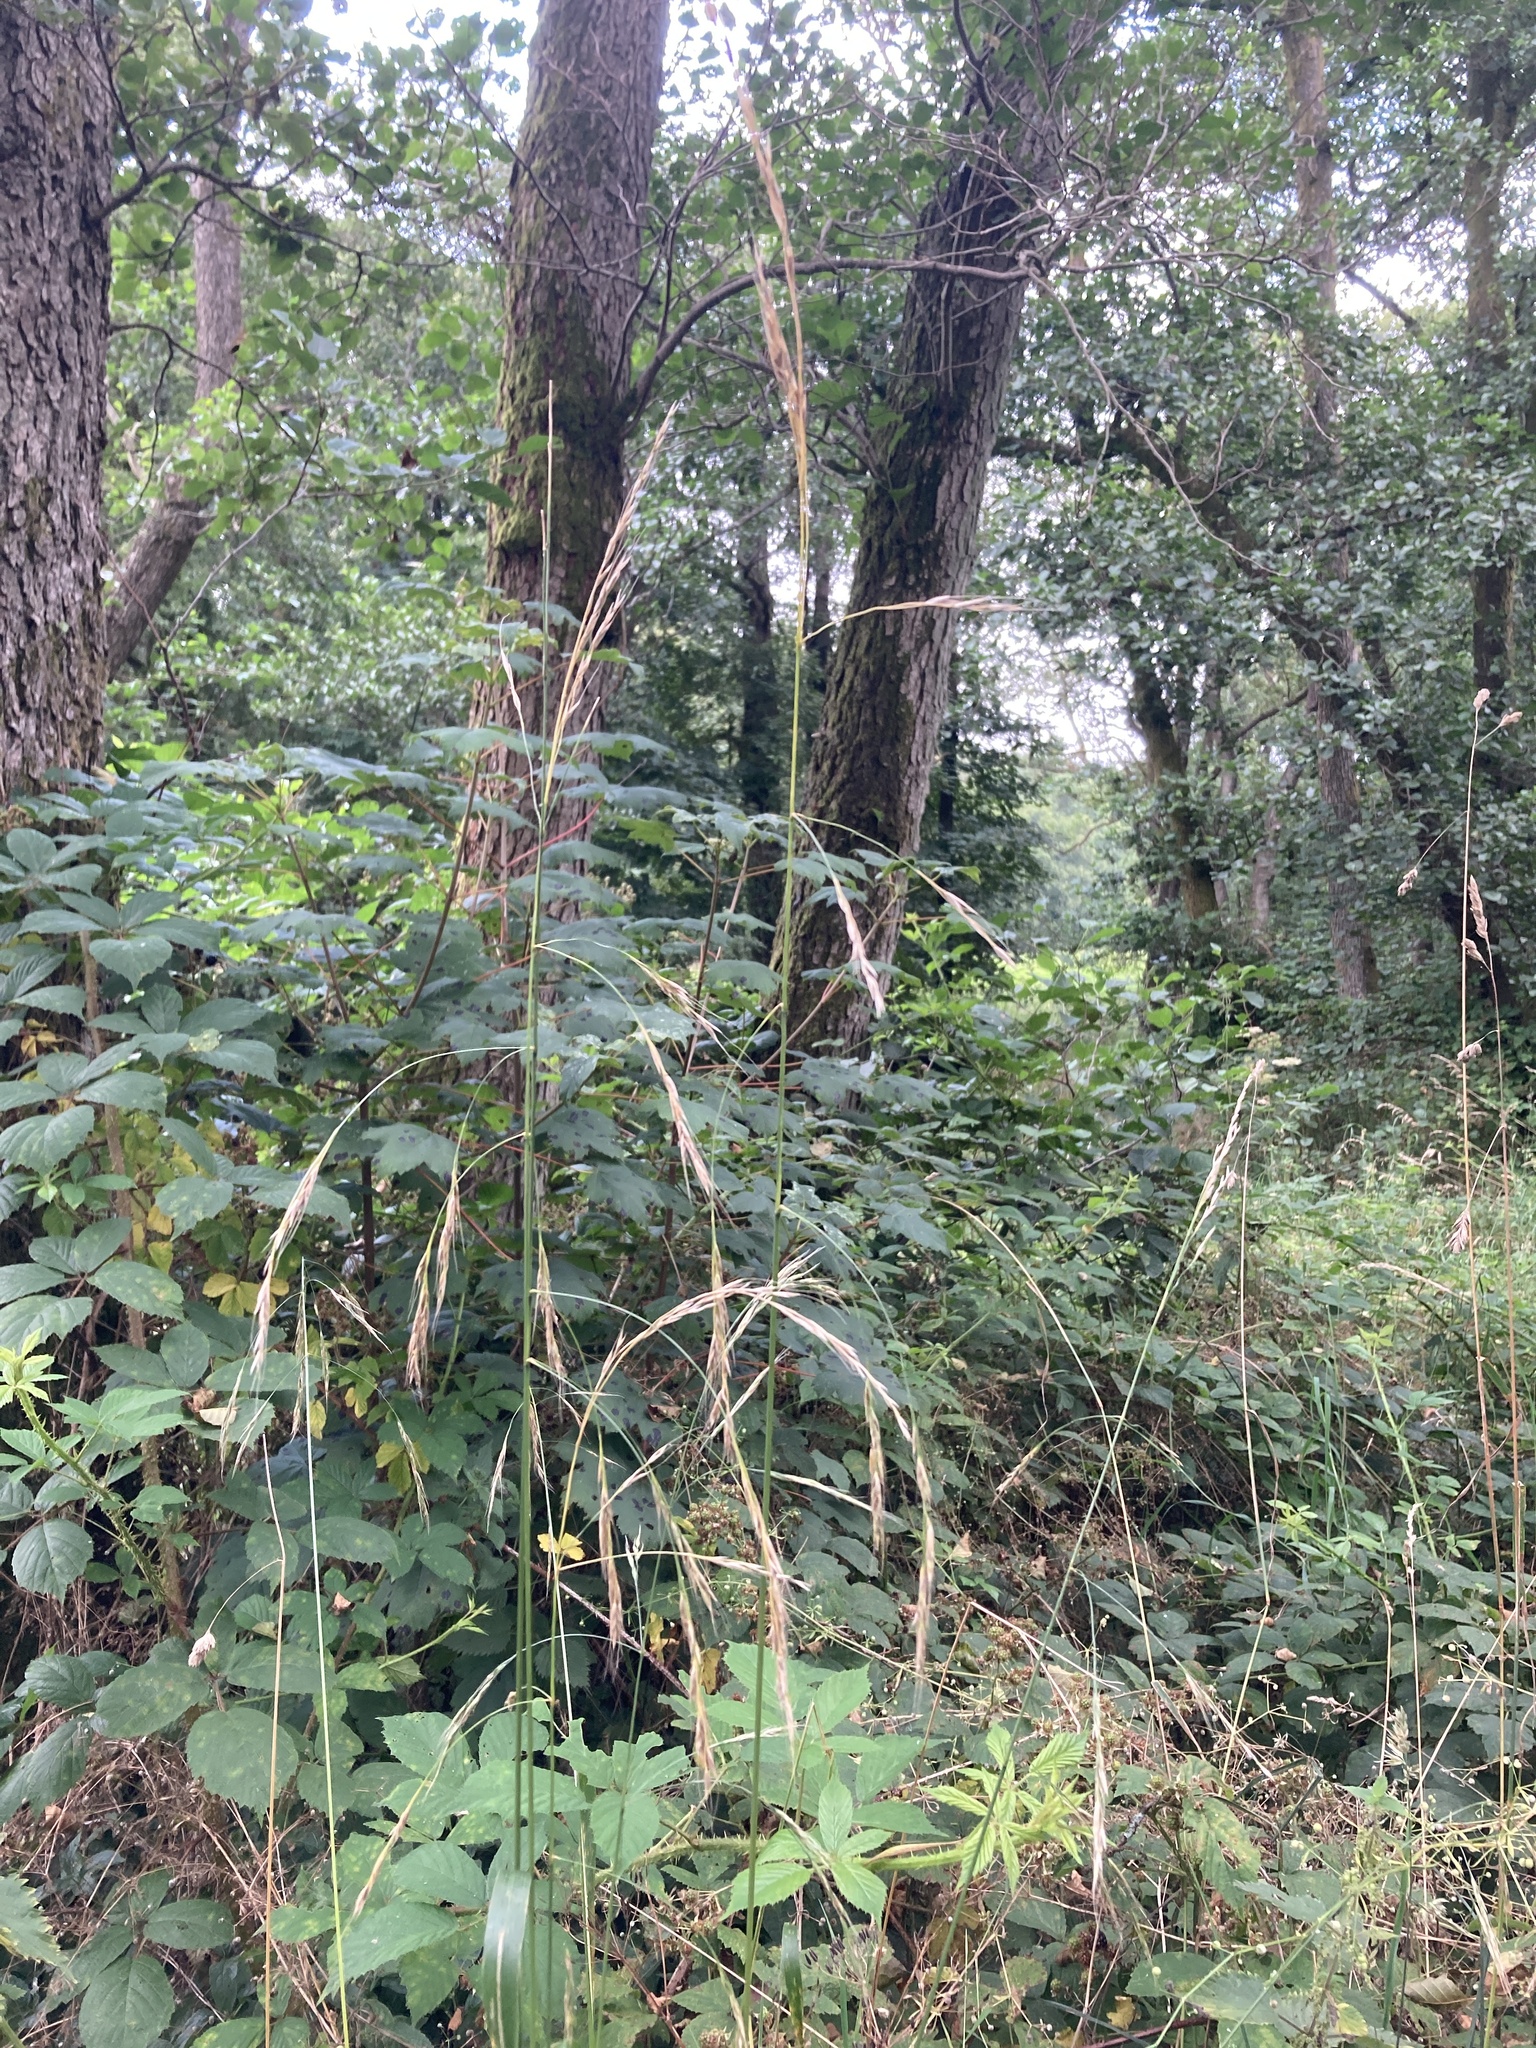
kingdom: Plantae
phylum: Tracheophyta
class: Liliopsida
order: Poales
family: Poaceae
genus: Lolium
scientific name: Lolium giganteum
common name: Giant fescue
